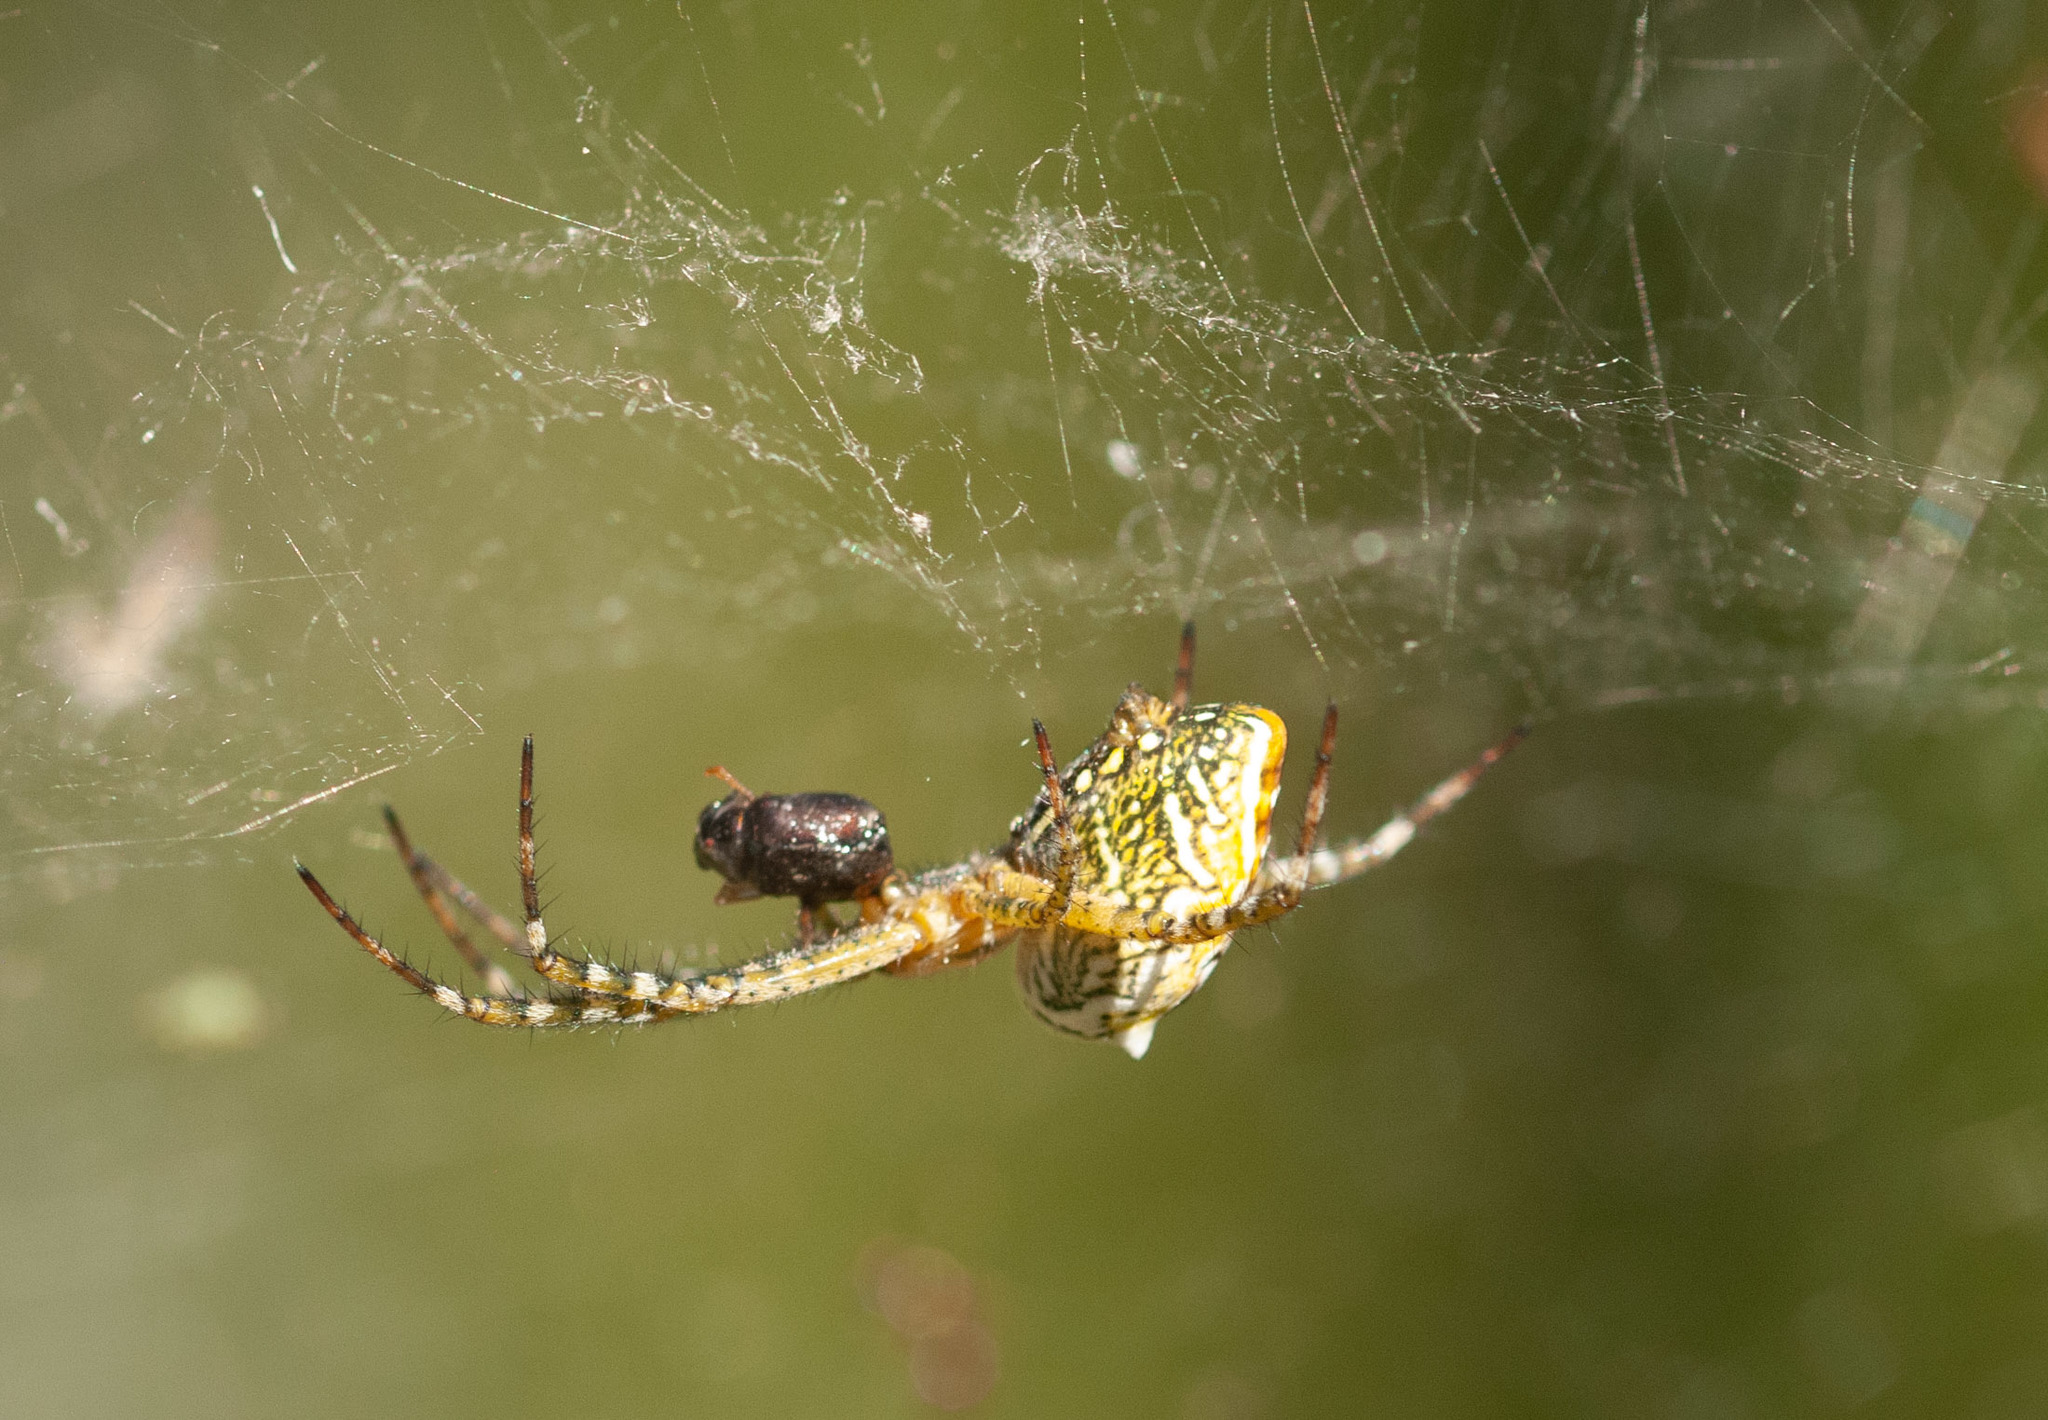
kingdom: Chromista
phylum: Ochrophyta
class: Dictyochophyceae
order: Pedinellales
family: Cyrtophoraceae
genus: Cyrtophora
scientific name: Cyrtophora moluccensis
